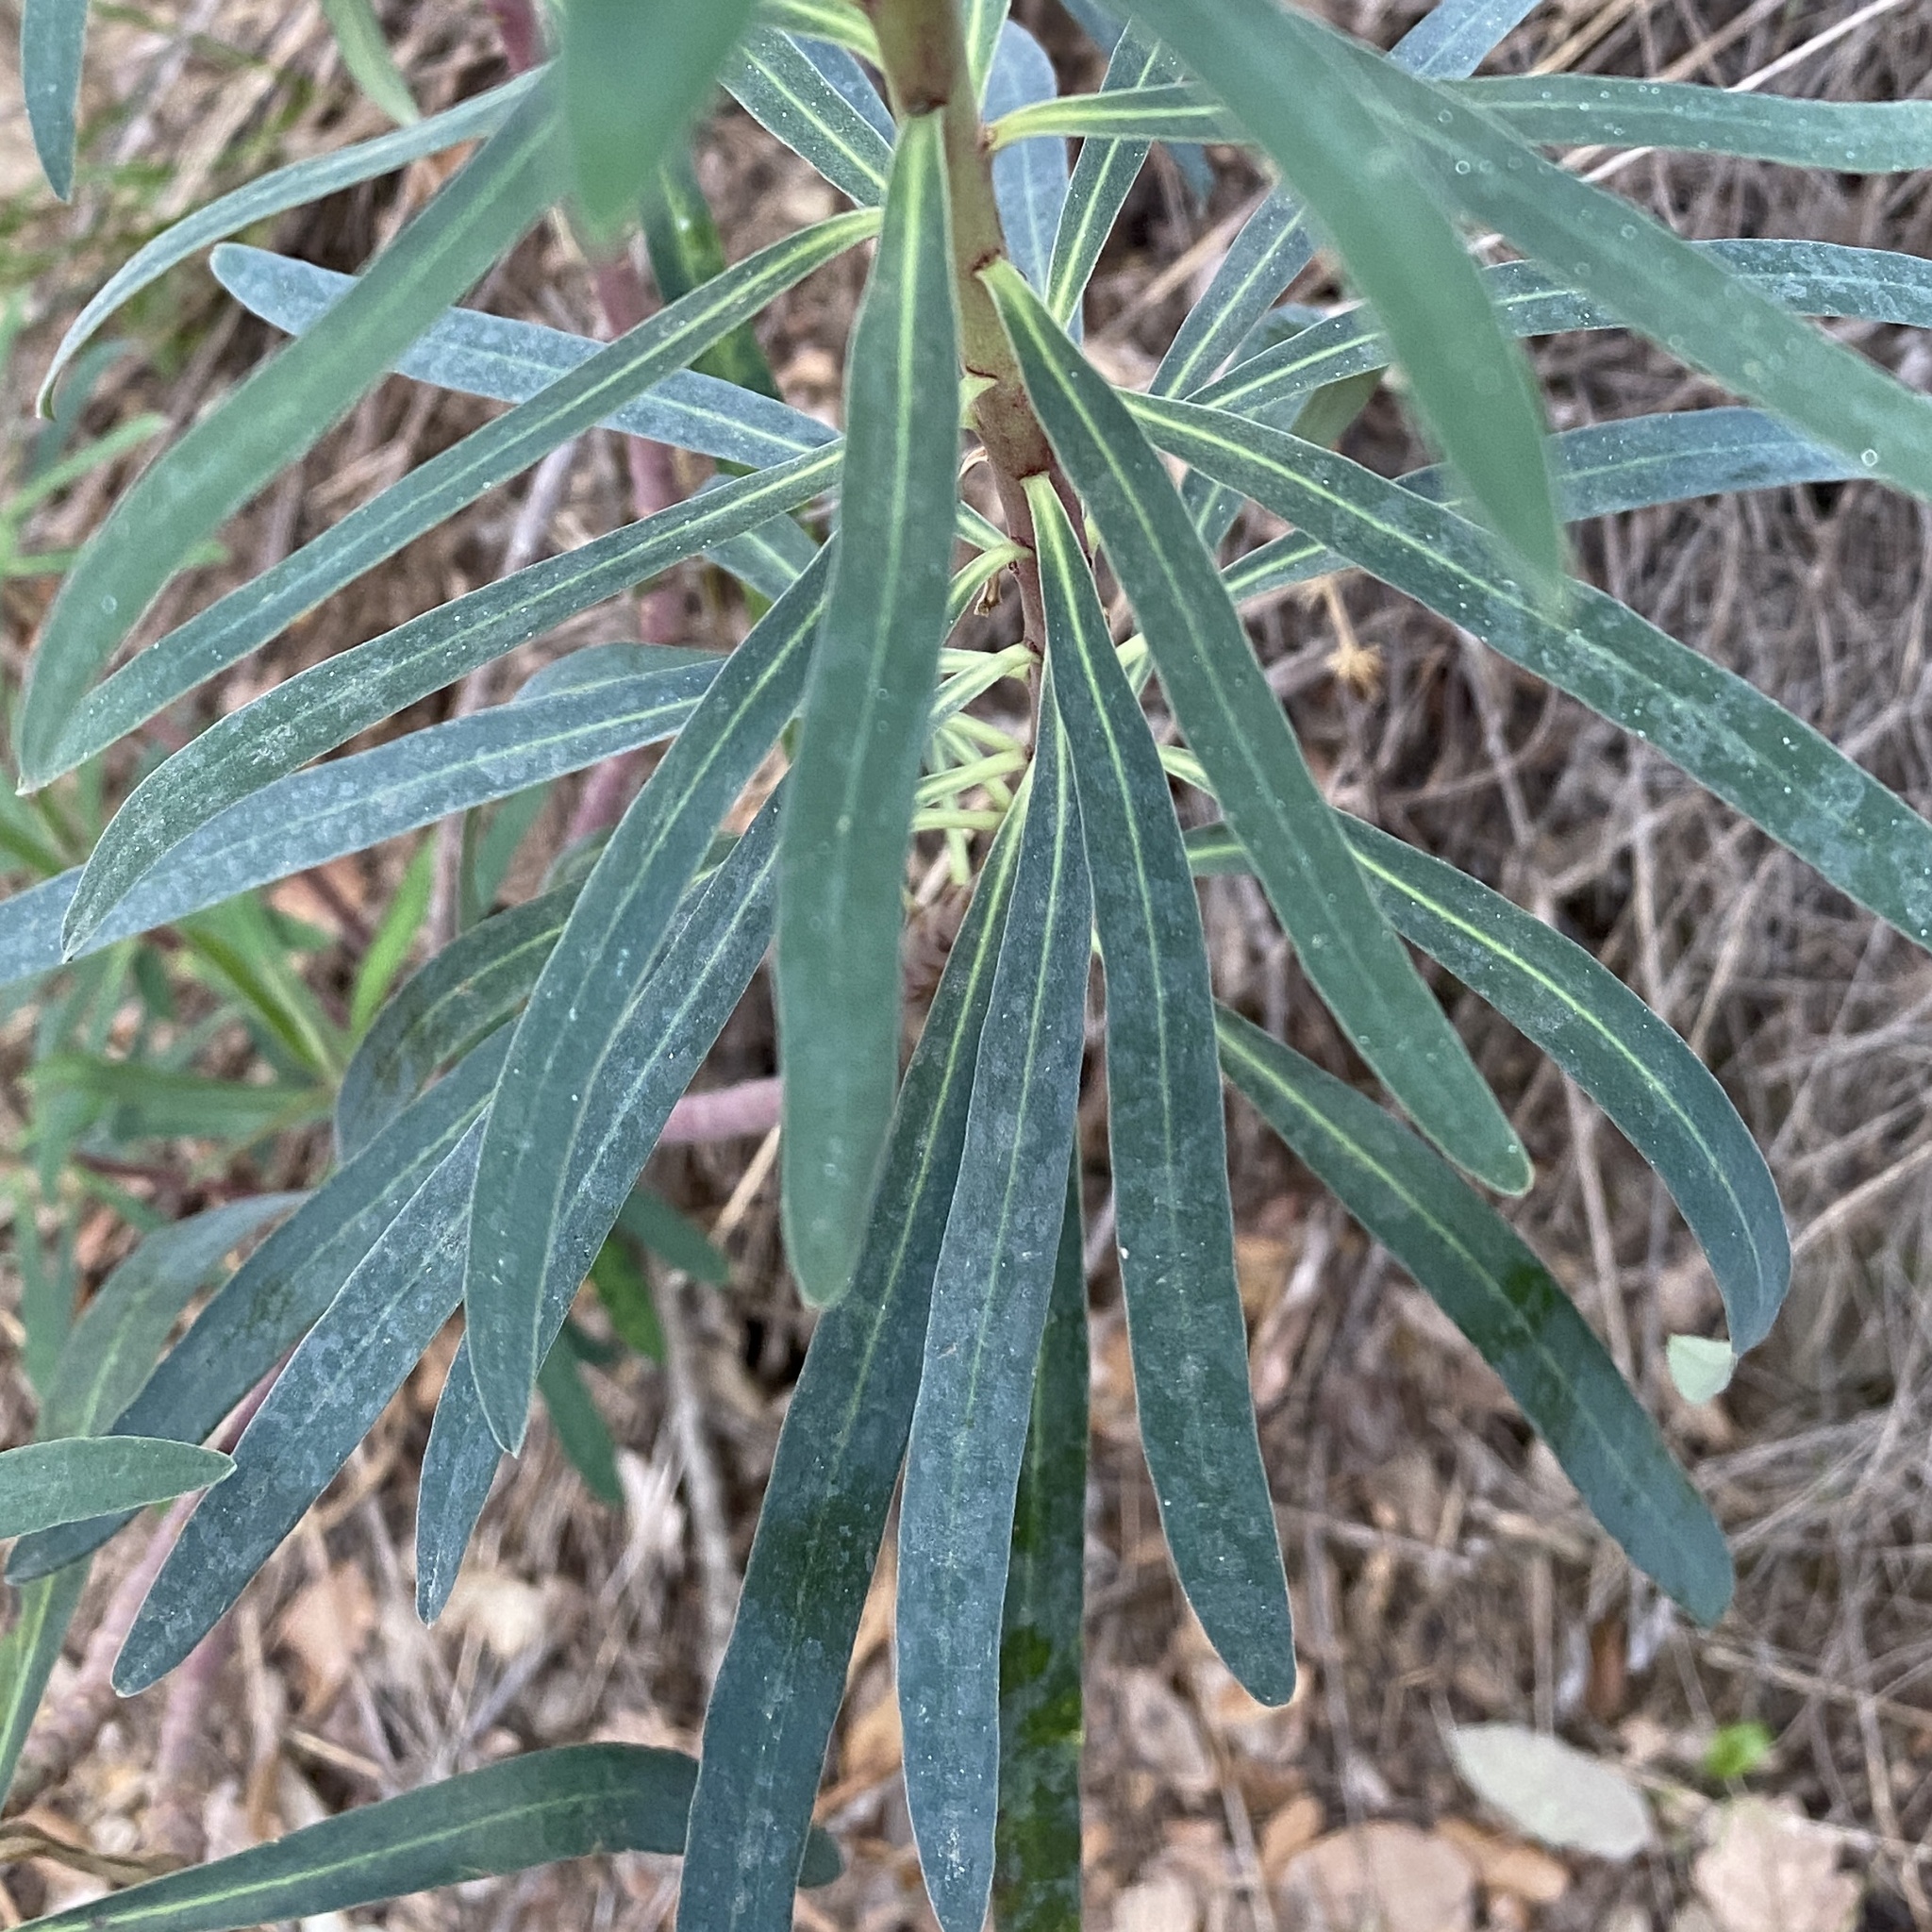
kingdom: Plantae
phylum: Tracheophyta
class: Magnoliopsida
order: Malpighiales
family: Euphorbiaceae
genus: Euphorbia
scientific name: Euphorbia characias
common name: Mediterranean spurge
